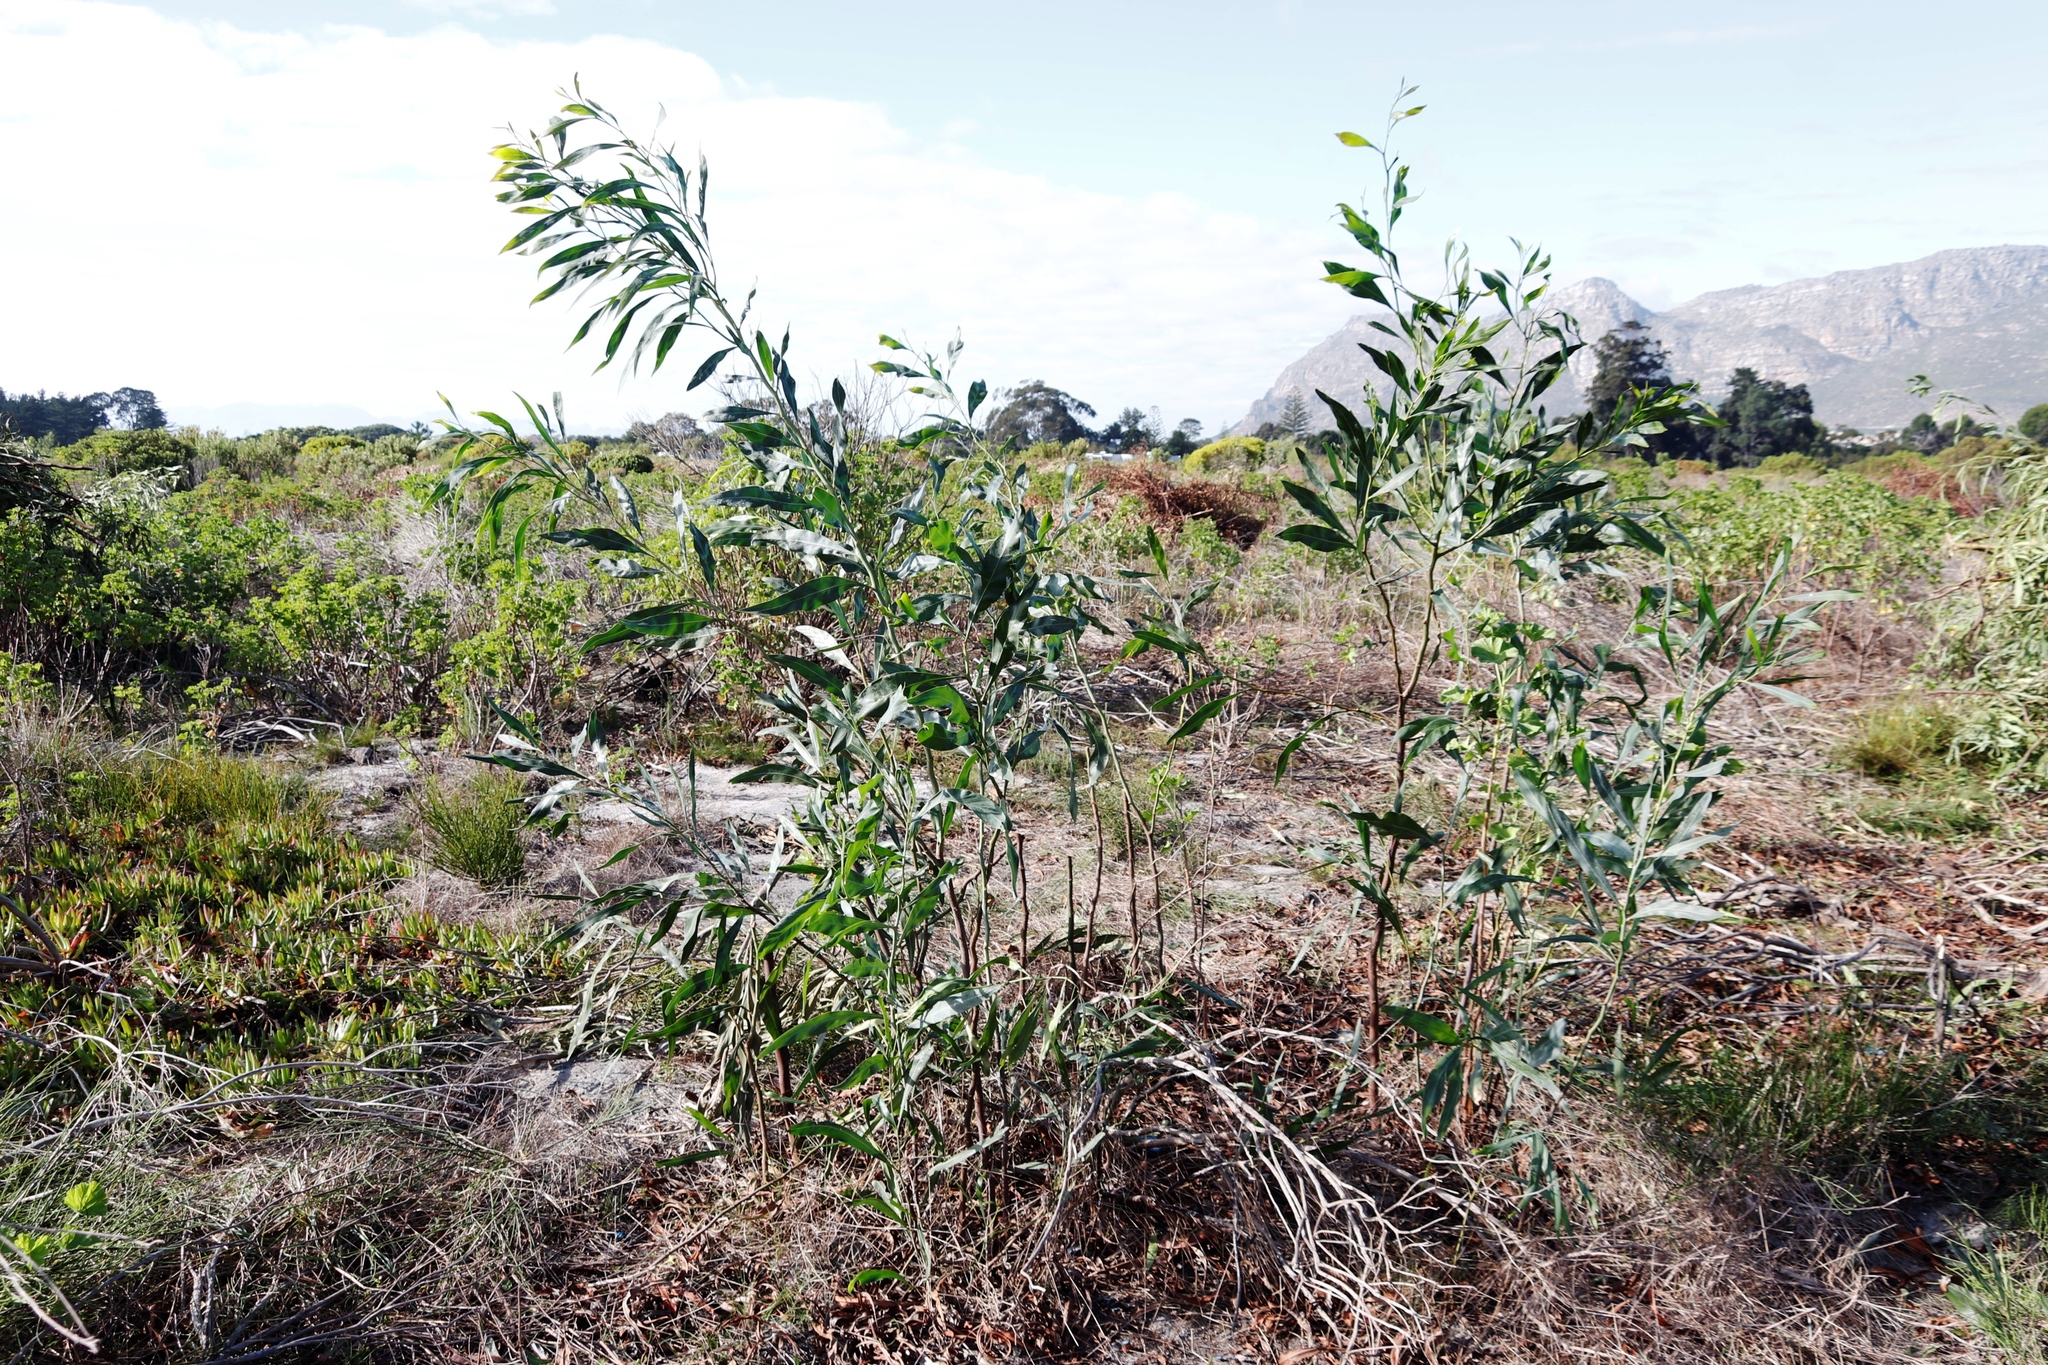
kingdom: Plantae
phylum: Tracheophyta
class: Magnoliopsida
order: Fabales
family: Fabaceae
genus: Acacia
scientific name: Acacia saligna
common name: Orange wattle
